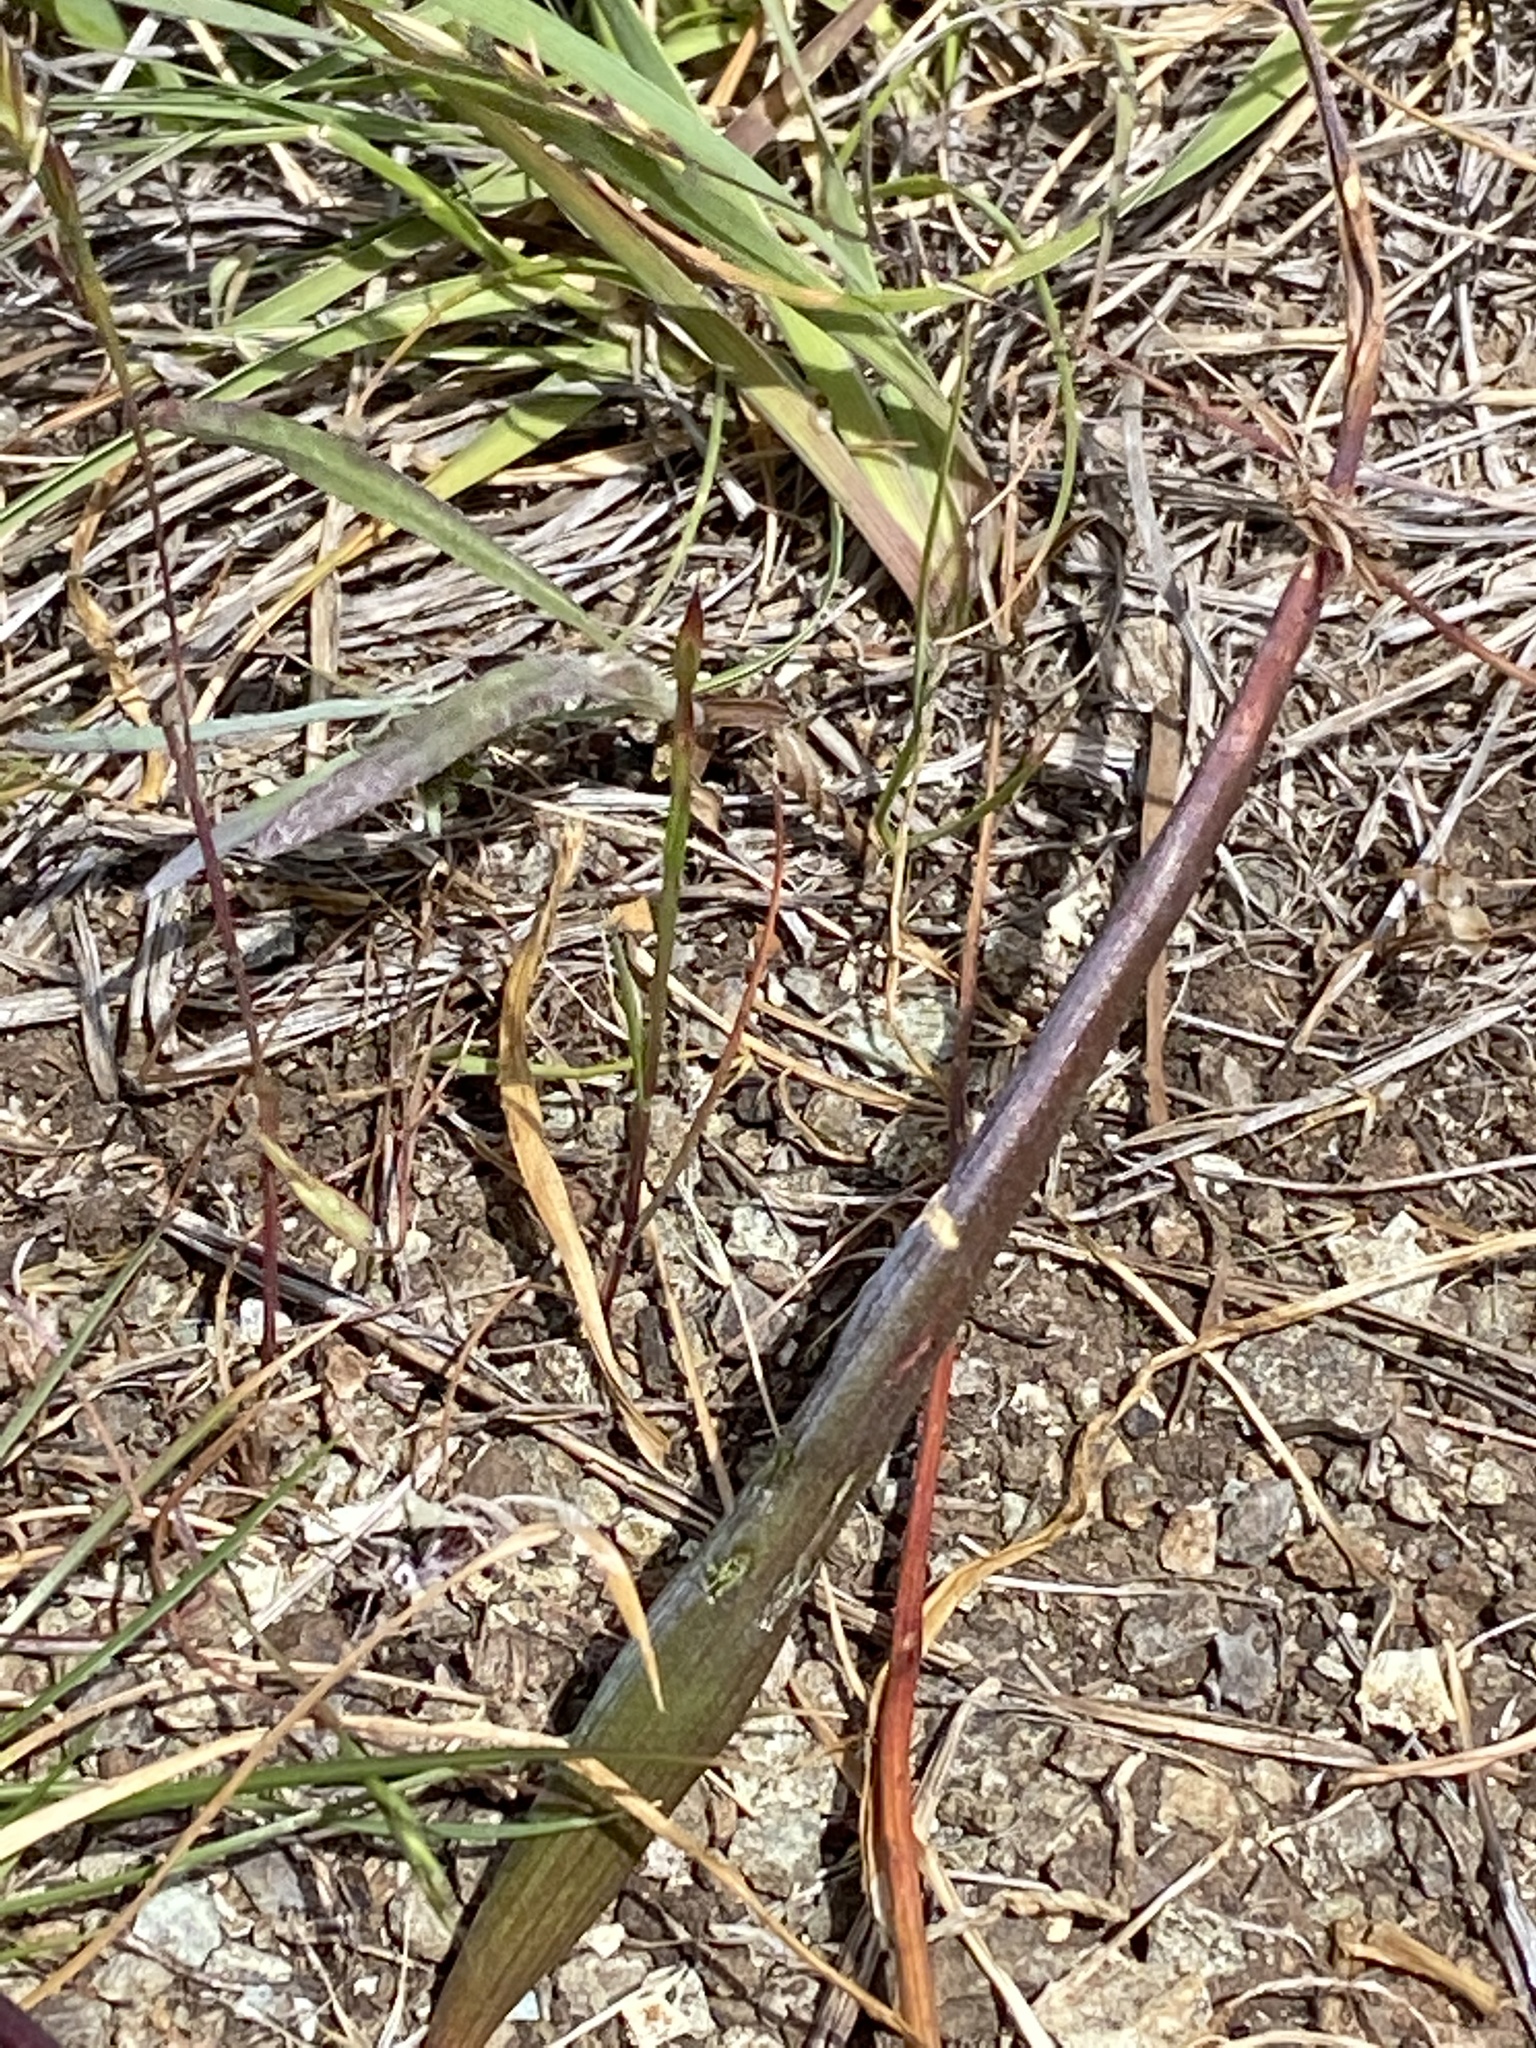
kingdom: Plantae
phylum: Tracheophyta
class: Liliopsida
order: Liliales
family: Liliaceae
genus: Calochortus
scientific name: Calochortus tiburonensis
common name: Tiburon mariposa-lily
